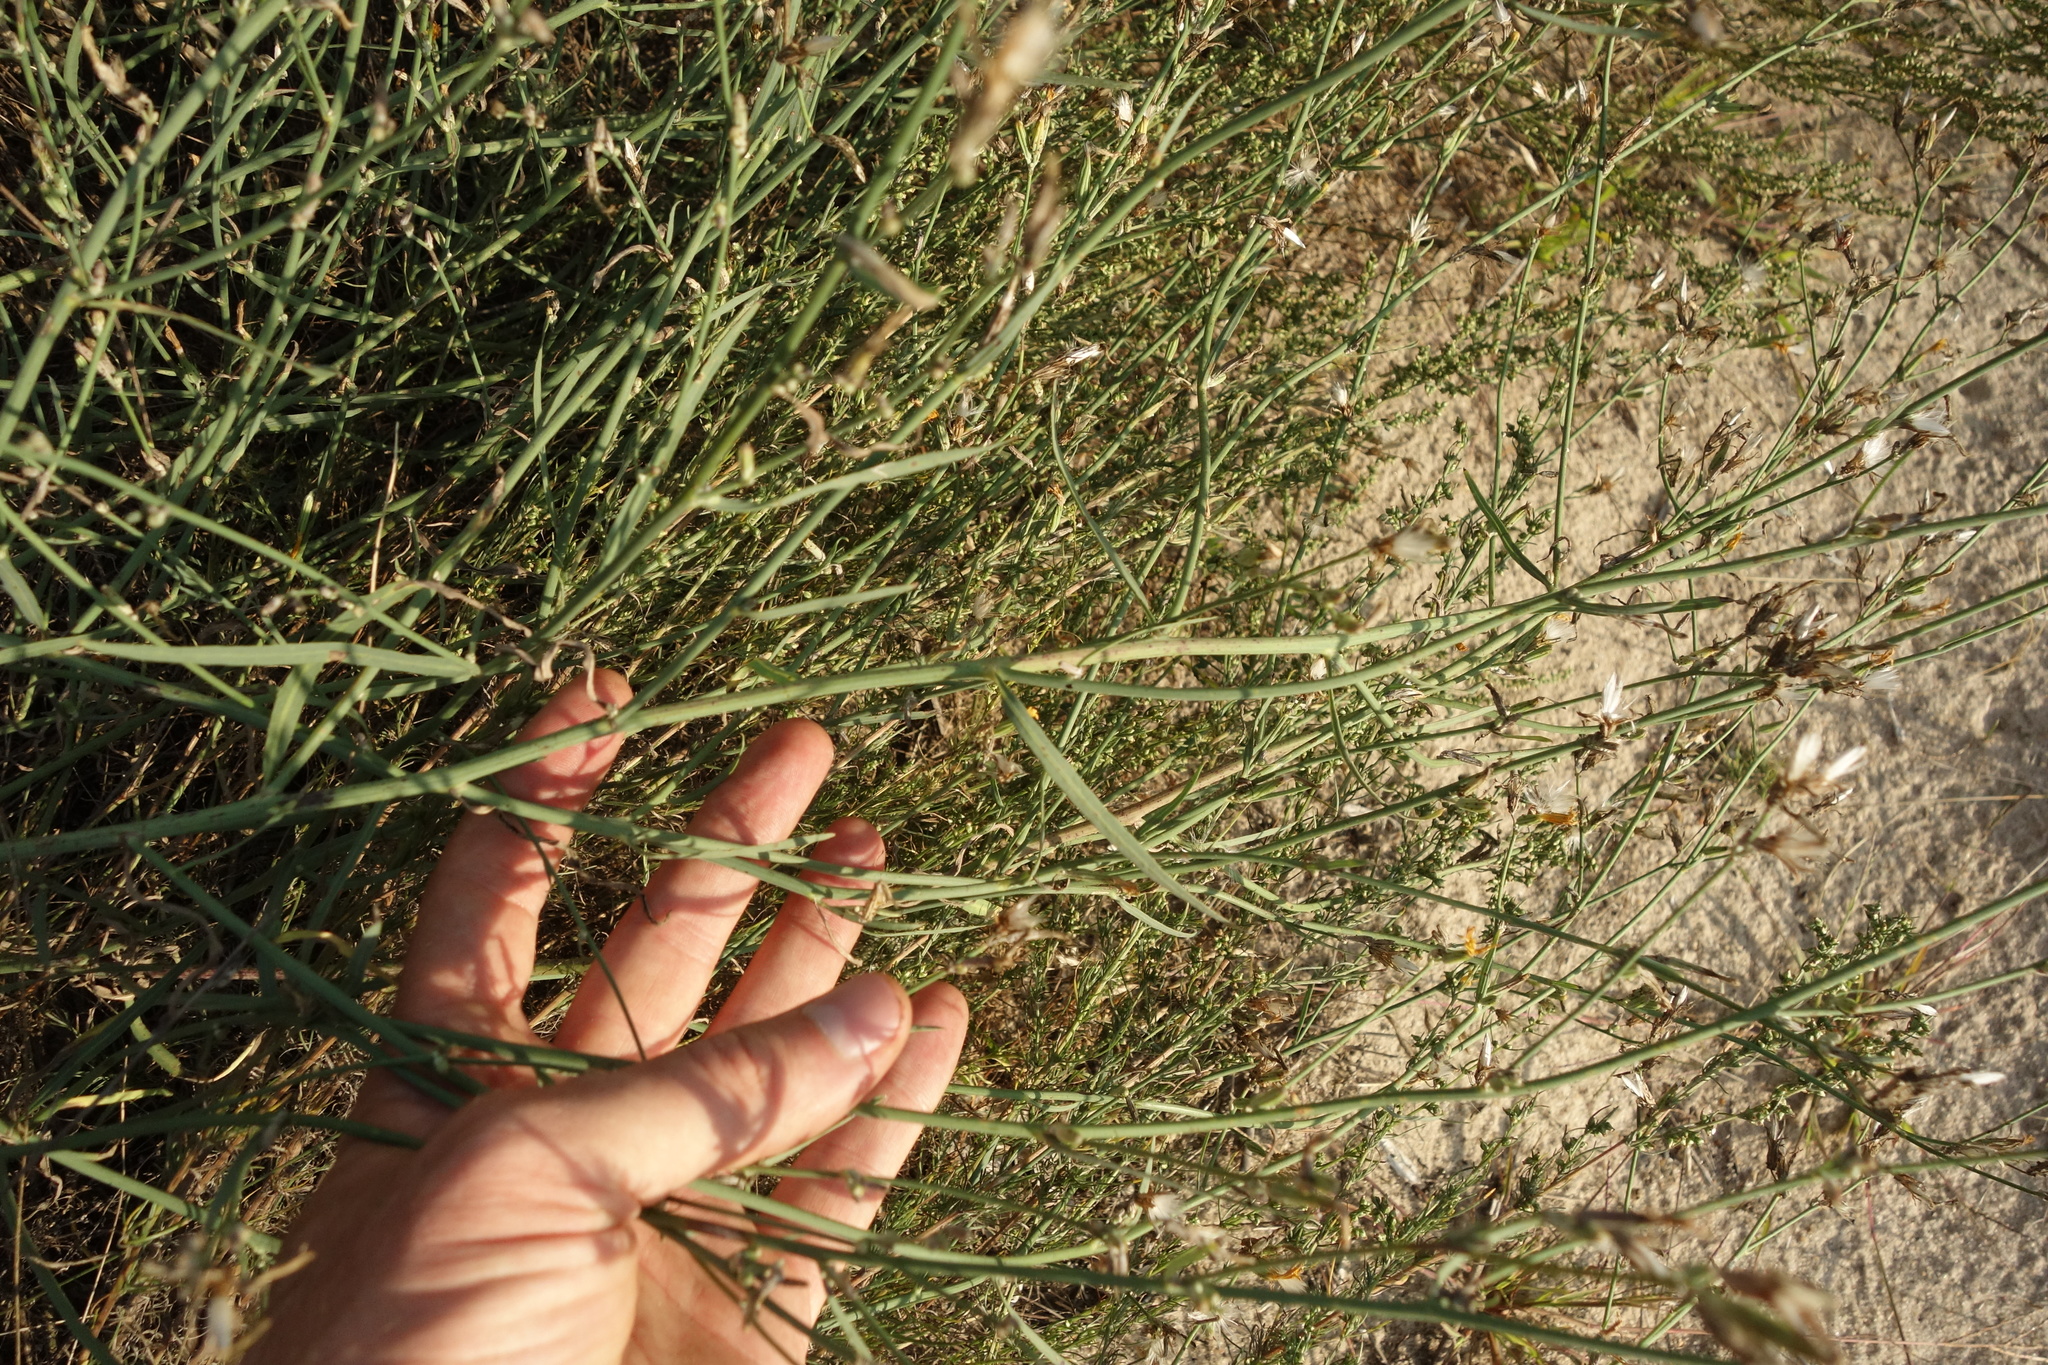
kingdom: Plantae
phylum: Tracheophyta
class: Magnoliopsida
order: Asterales
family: Asteraceae
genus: Chondrilla
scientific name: Chondrilla juncea
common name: Skeleton weed
